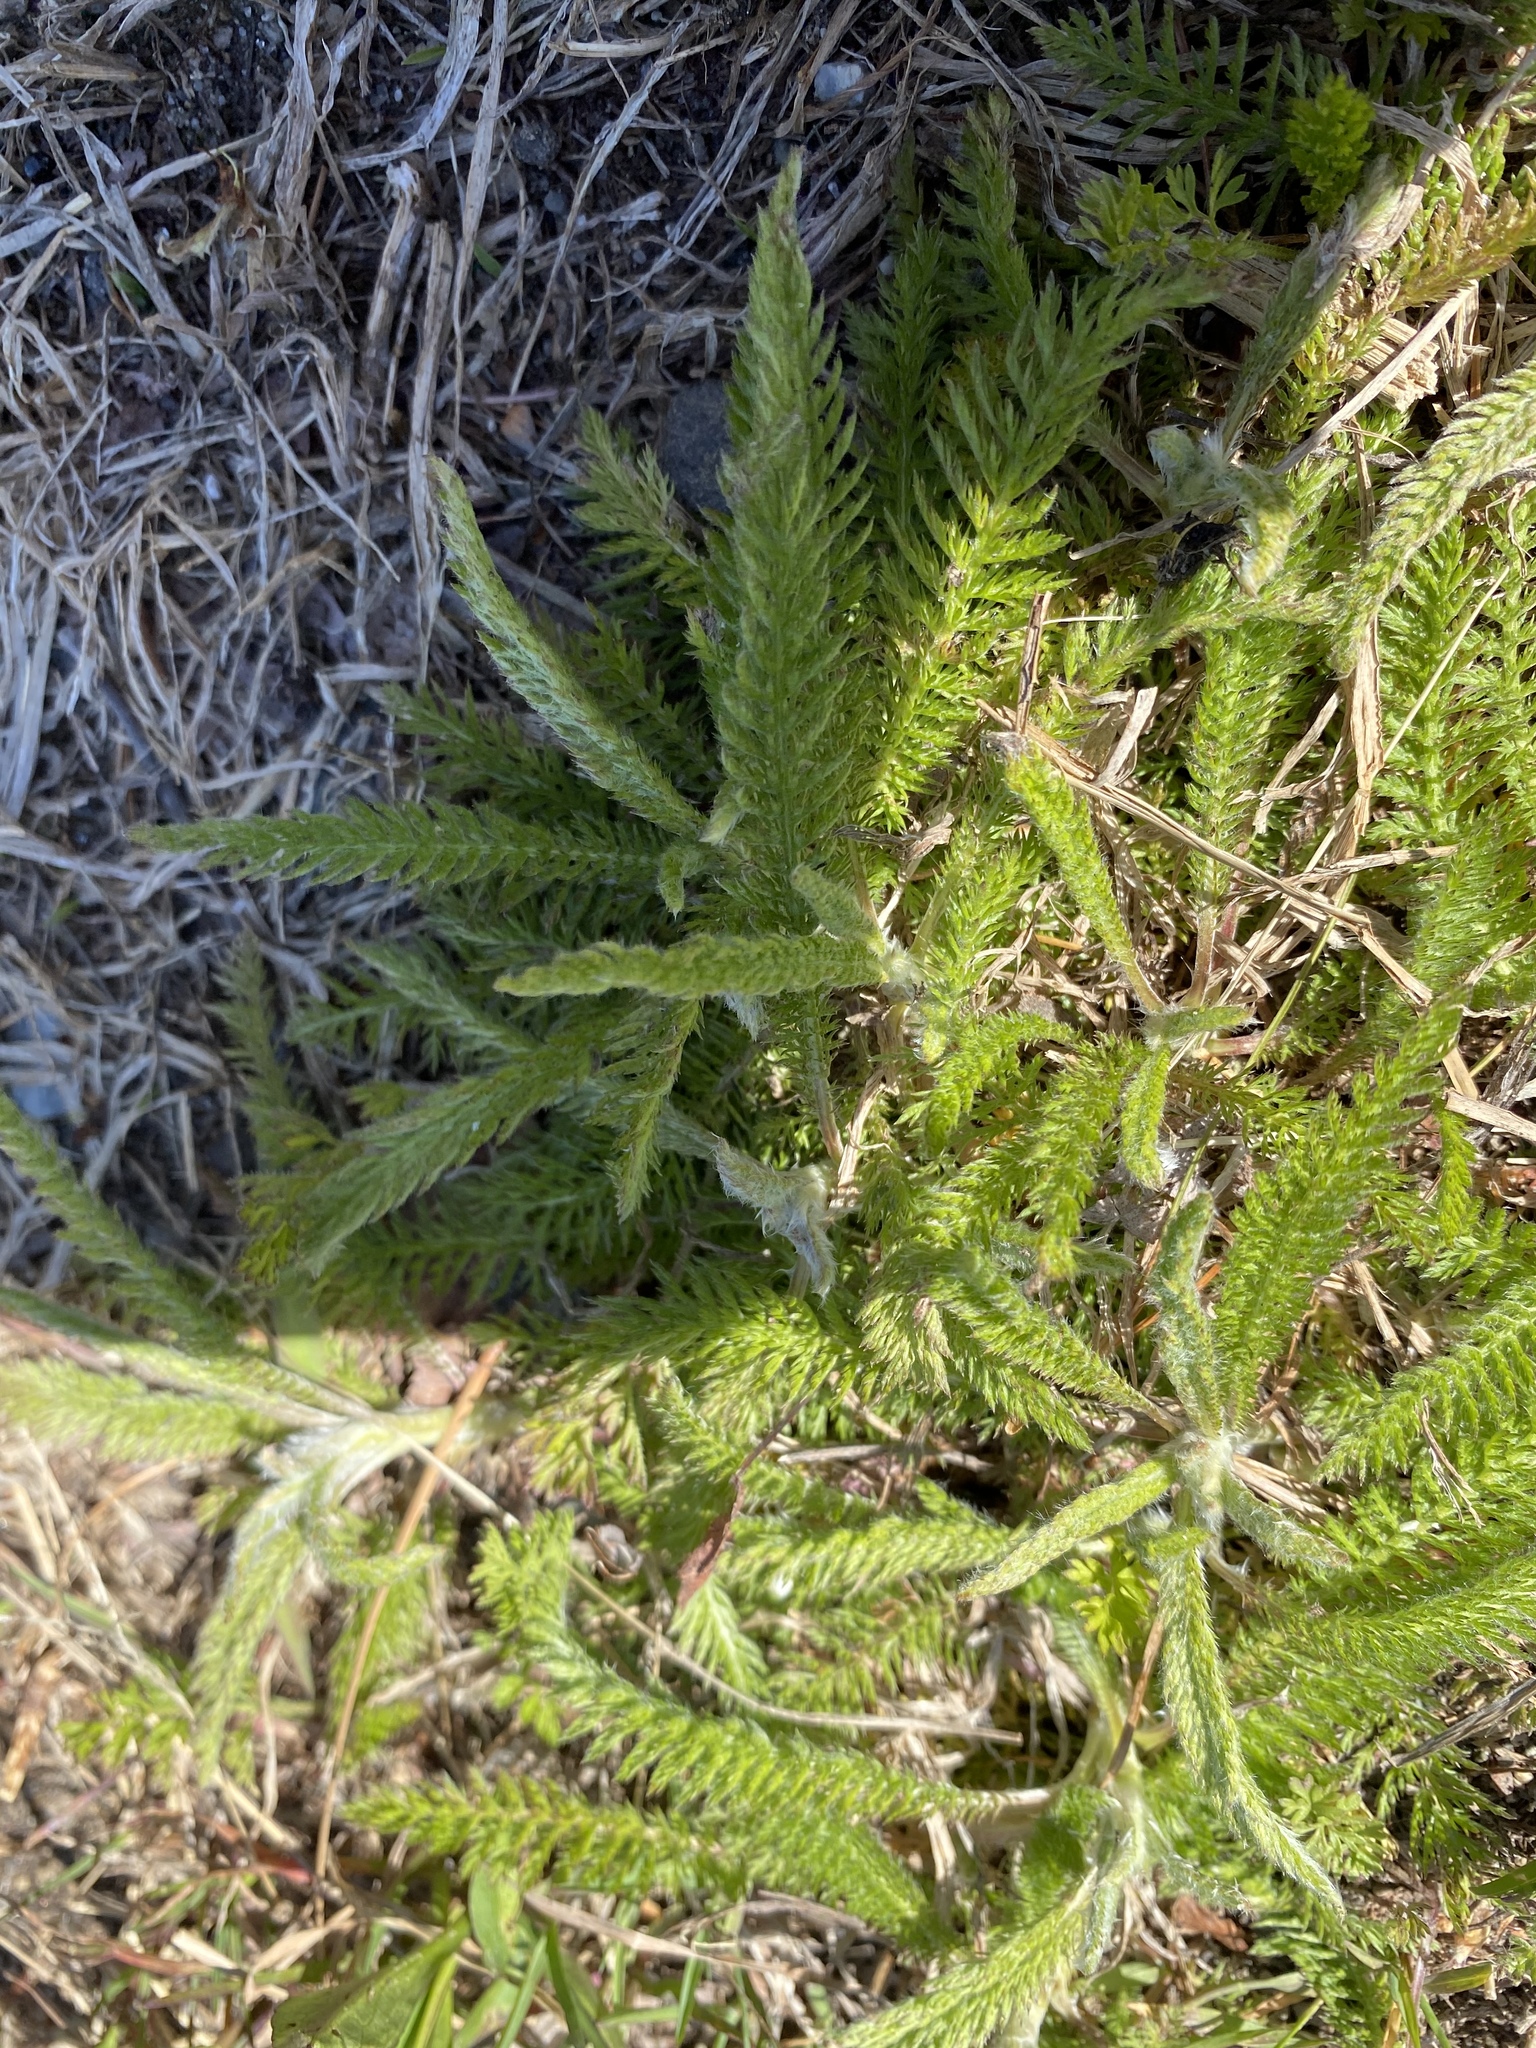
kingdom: Plantae
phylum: Tracheophyta
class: Magnoliopsida
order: Asterales
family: Asteraceae
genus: Achillea
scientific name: Achillea millefolium
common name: Yarrow
